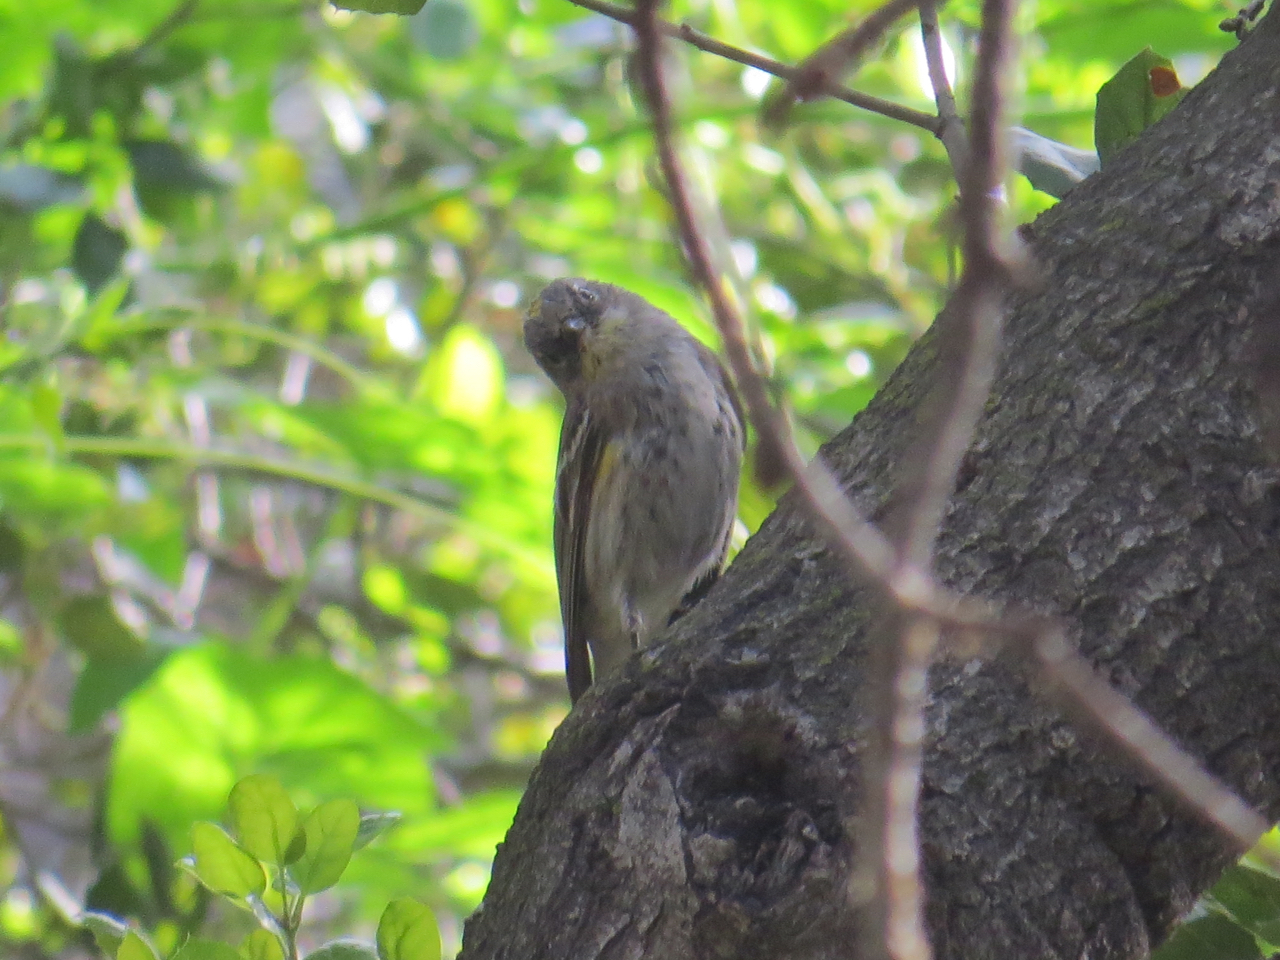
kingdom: Animalia
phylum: Chordata
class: Aves
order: Passeriformes
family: Parulidae
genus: Setophaga
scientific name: Setophaga coronata
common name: Myrtle warbler
